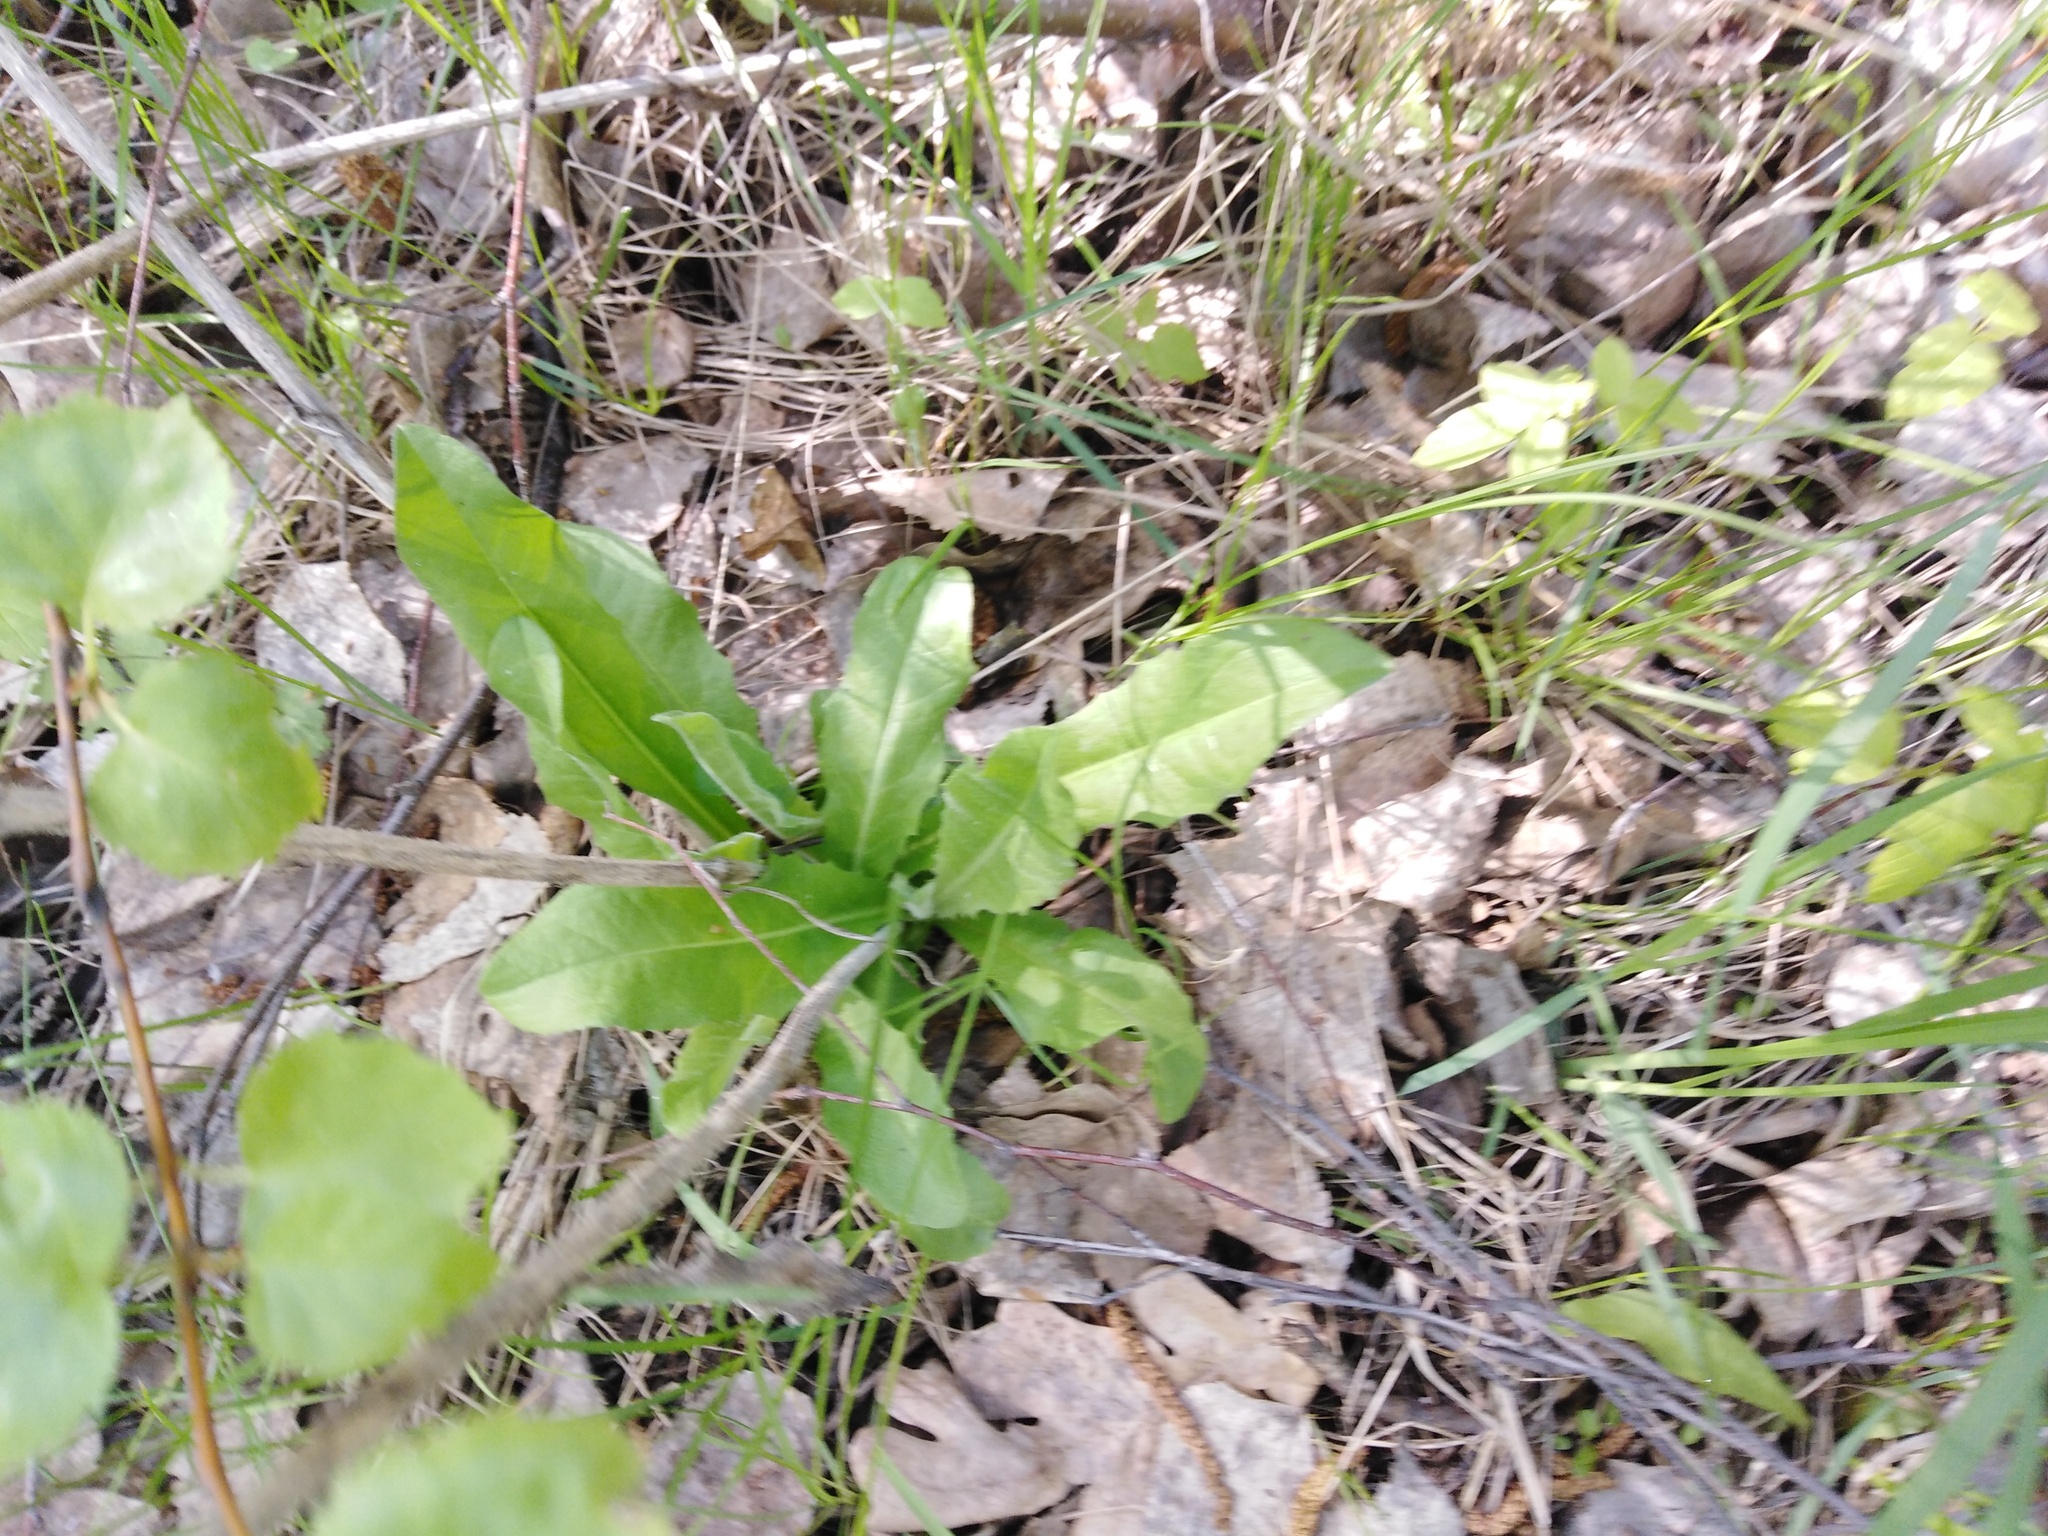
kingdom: Plantae
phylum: Tracheophyta
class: Magnoliopsida
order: Asterales
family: Asteraceae
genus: Cichorium
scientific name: Cichorium intybus
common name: Chicory
